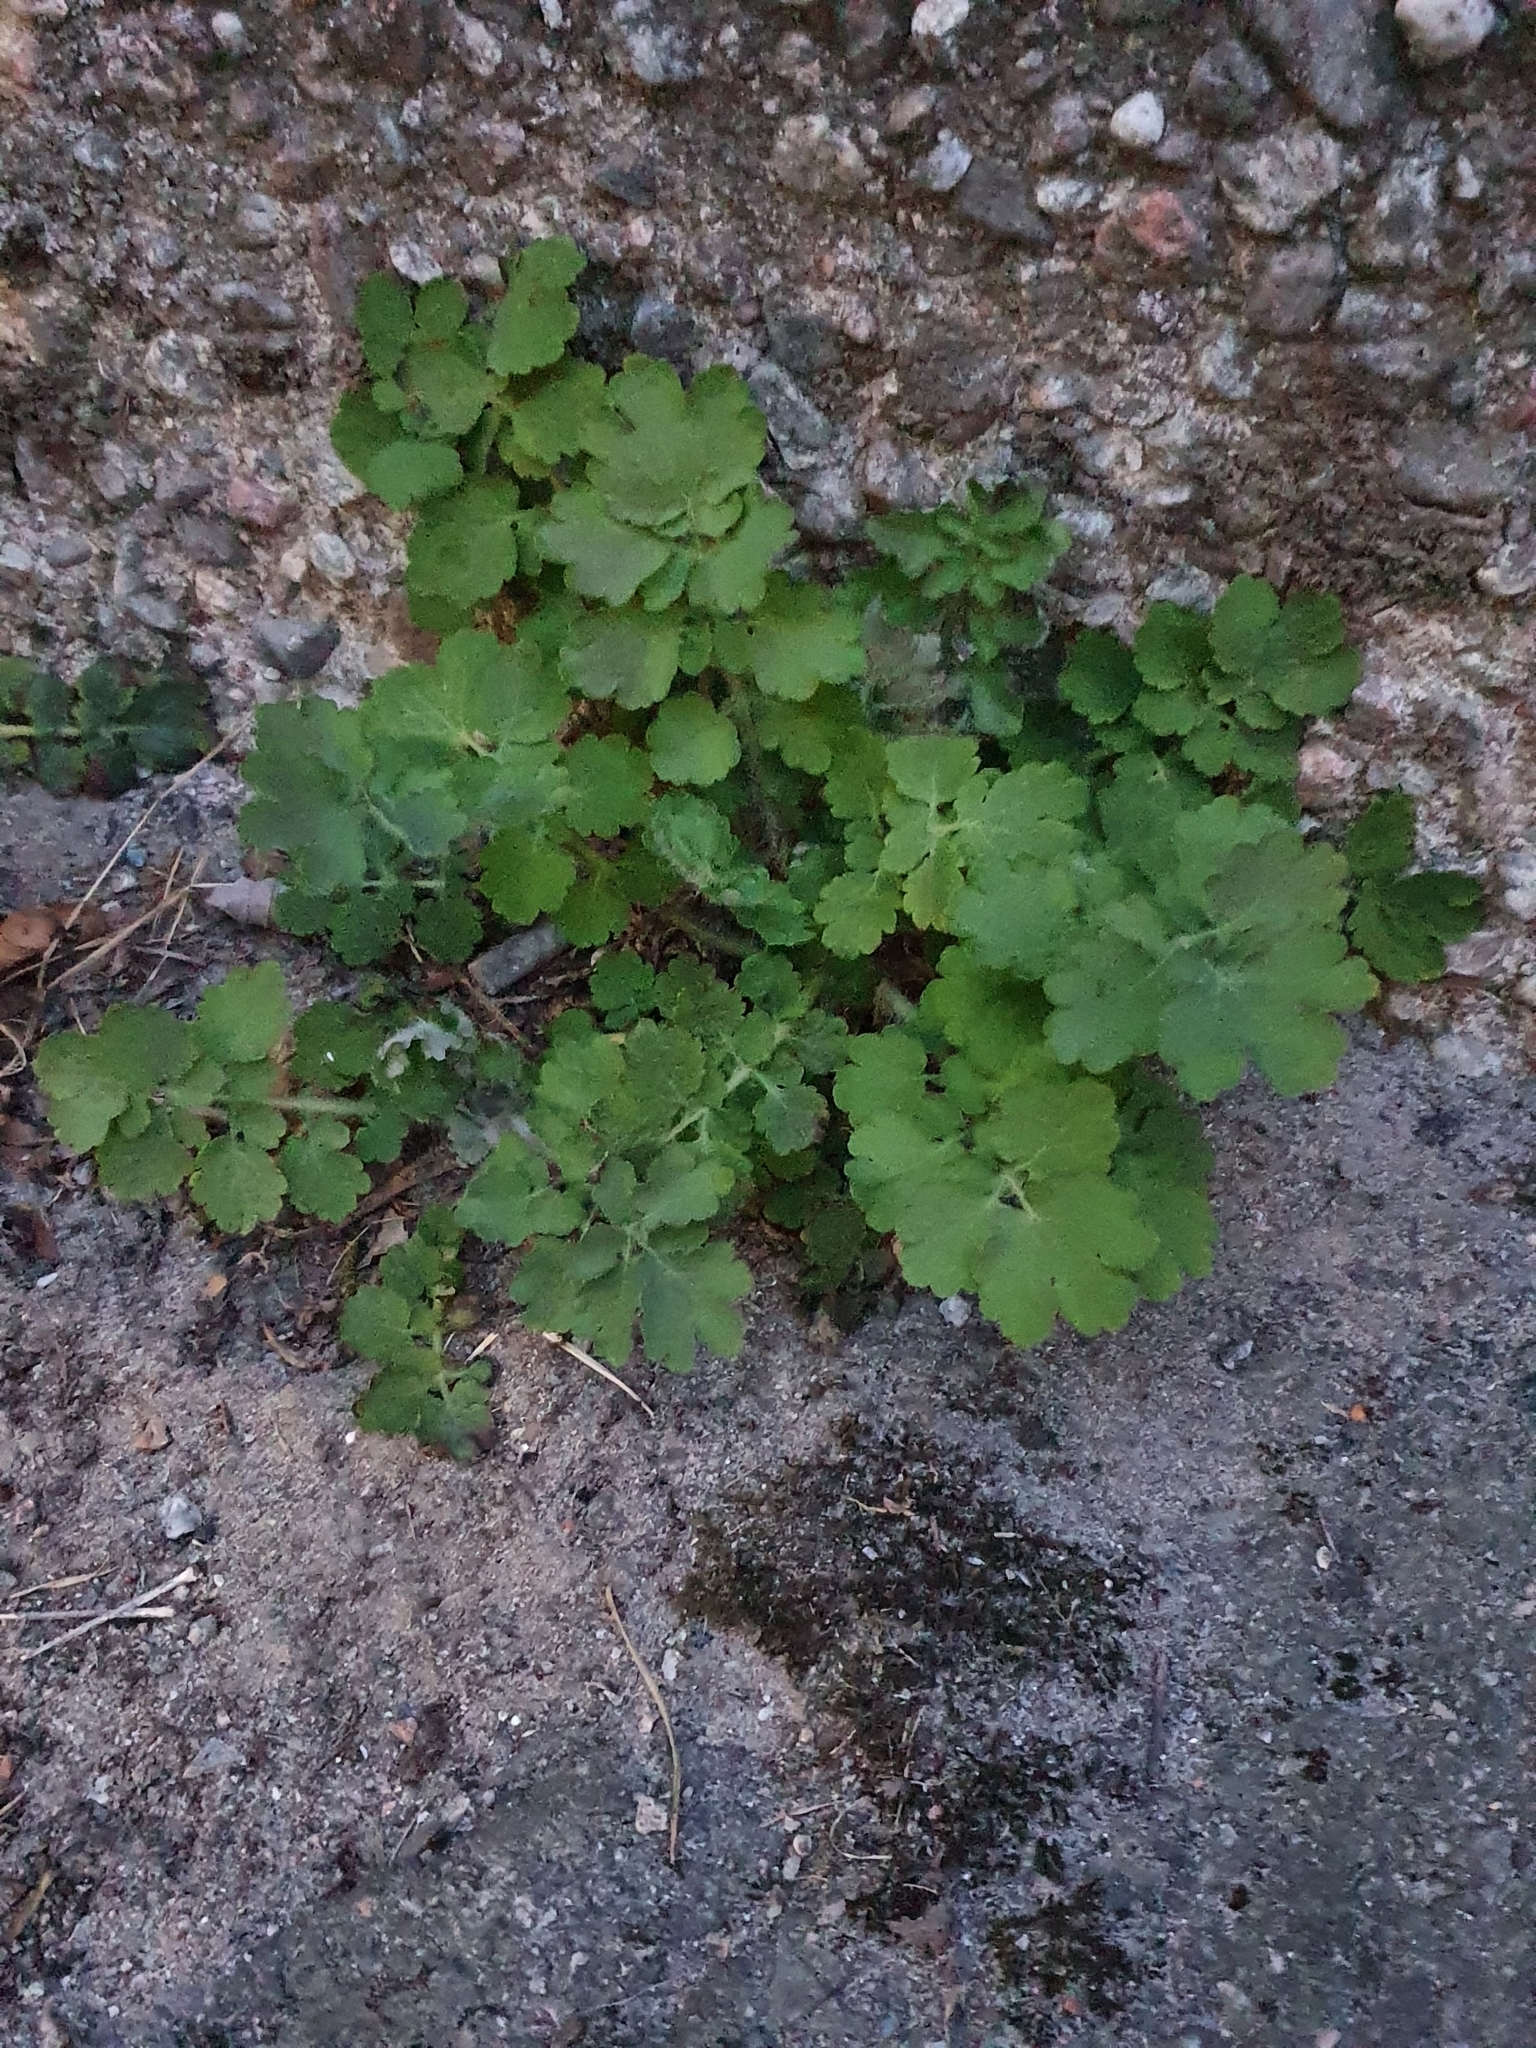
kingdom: Plantae
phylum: Tracheophyta
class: Magnoliopsida
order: Ranunculales
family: Papaveraceae
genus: Chelidonium
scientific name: Chelidonium majus
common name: Greater celandine
